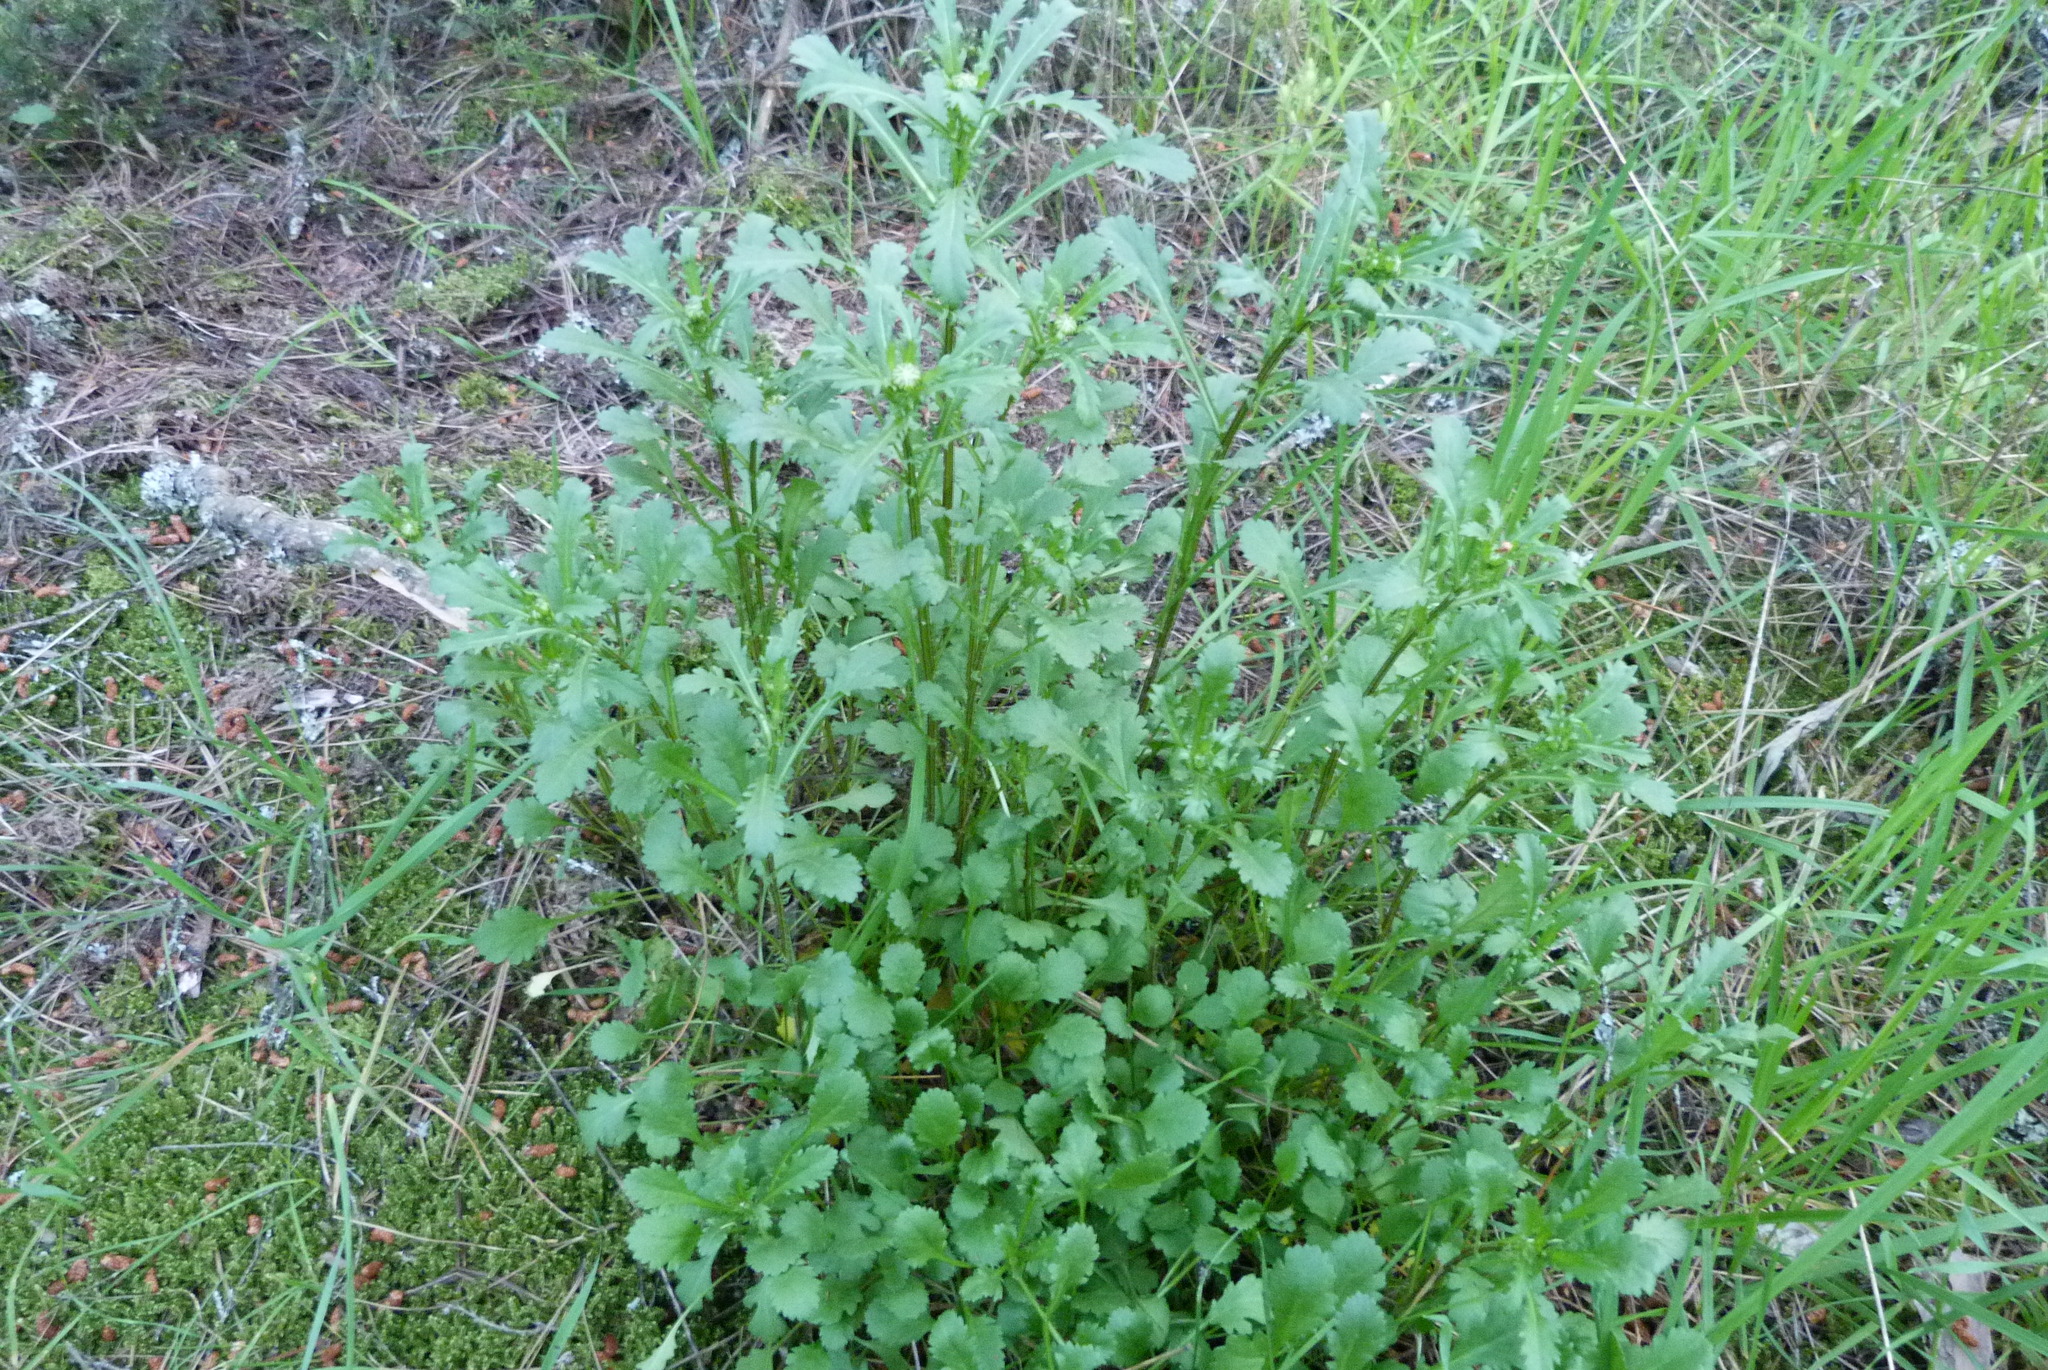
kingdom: Plantae
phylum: Tracheophyta
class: Magnoliopsida
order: Asterales
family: Asteraceae
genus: Leucanthemum
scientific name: Leucanthemum vulgare
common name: Oxeye daisy
